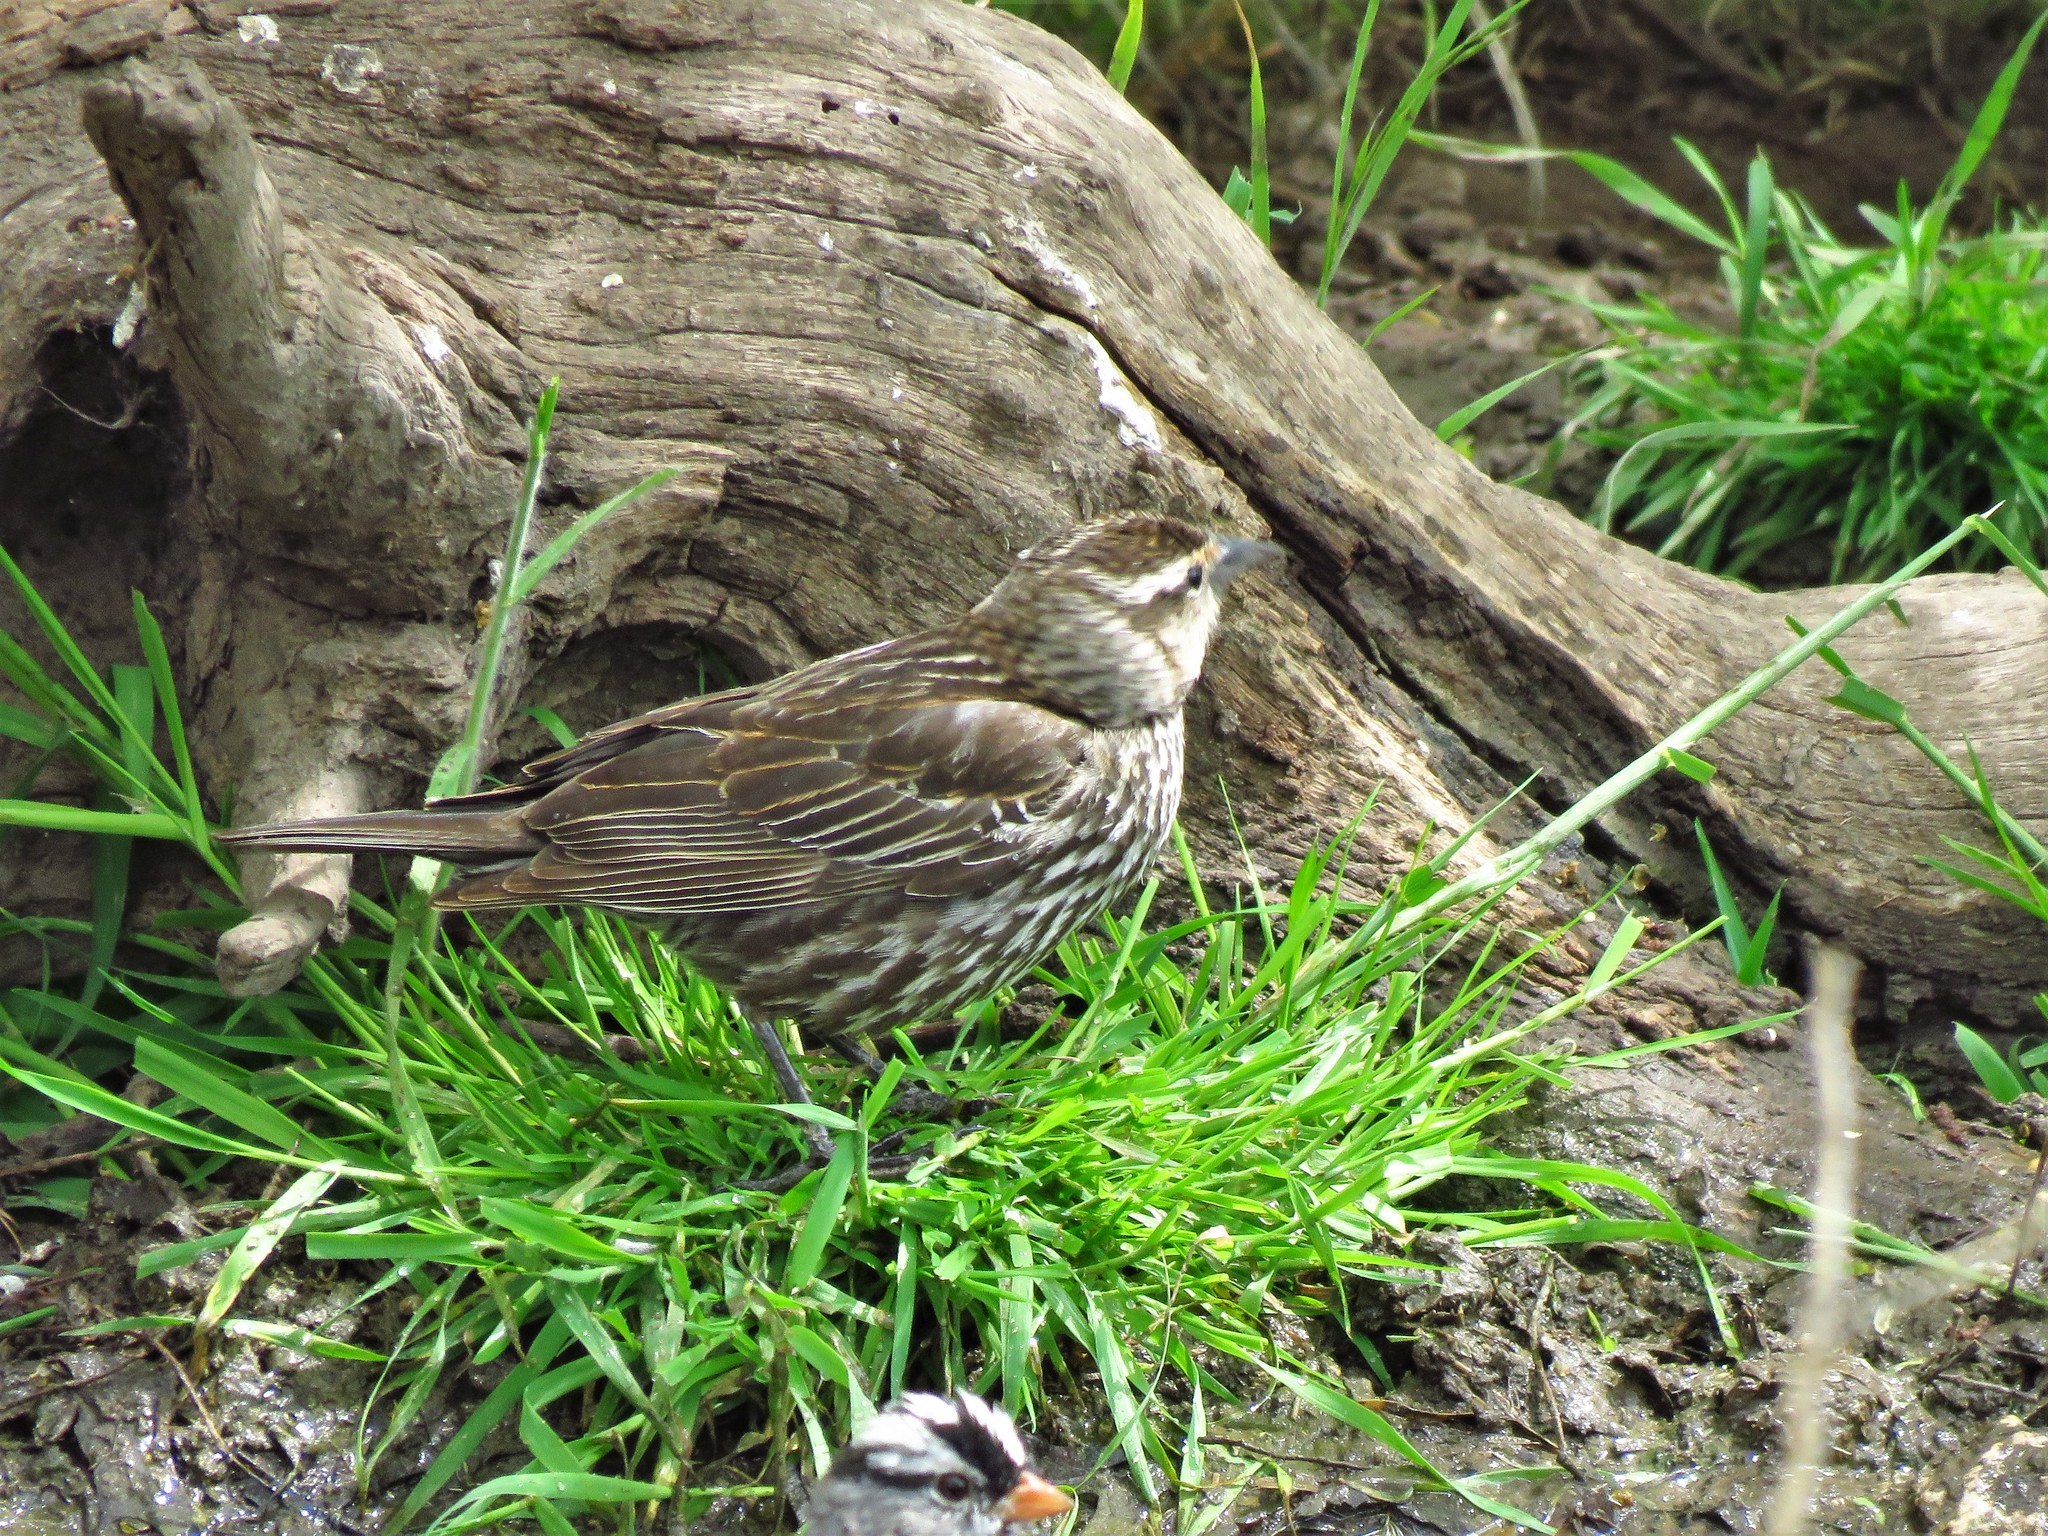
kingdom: Animalia
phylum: Chordata
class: Aves
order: Passeriformes
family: Icteridae
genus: Agelaius
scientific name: Agelaius phoeniceus
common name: Red-winged blackbird
